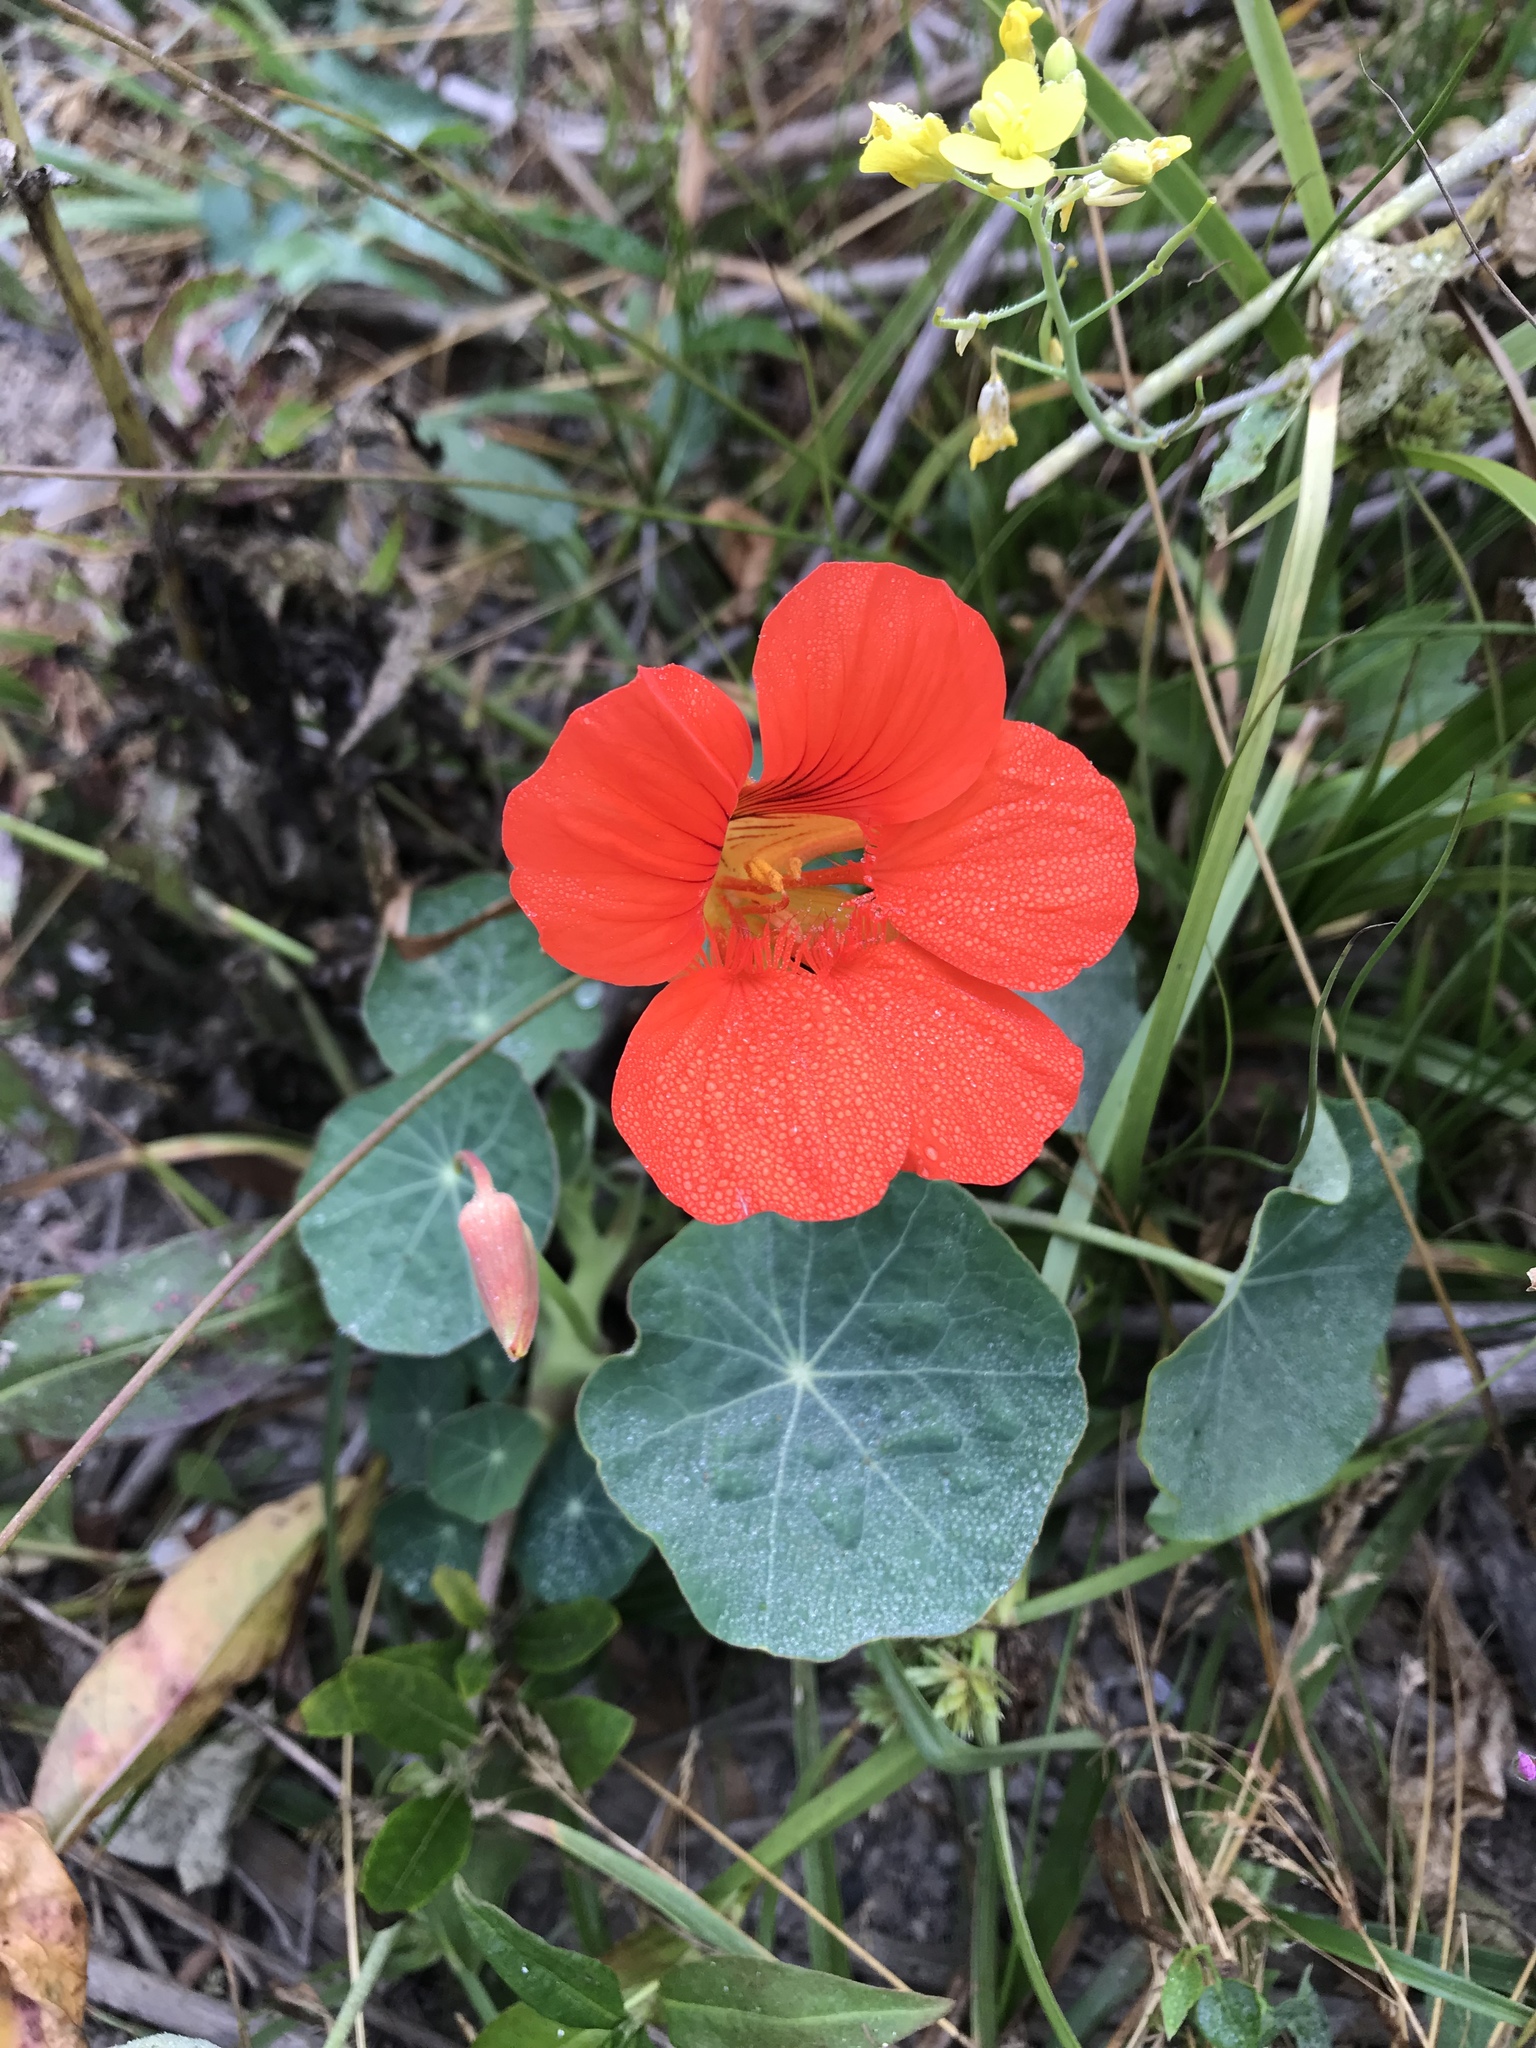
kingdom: Plantae
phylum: Tracheophyta
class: Magnoliopsida
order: Brassicales
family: Tropaeolaceae
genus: Tropaeolum
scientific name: Tropaeolum majus
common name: Nasturtium
